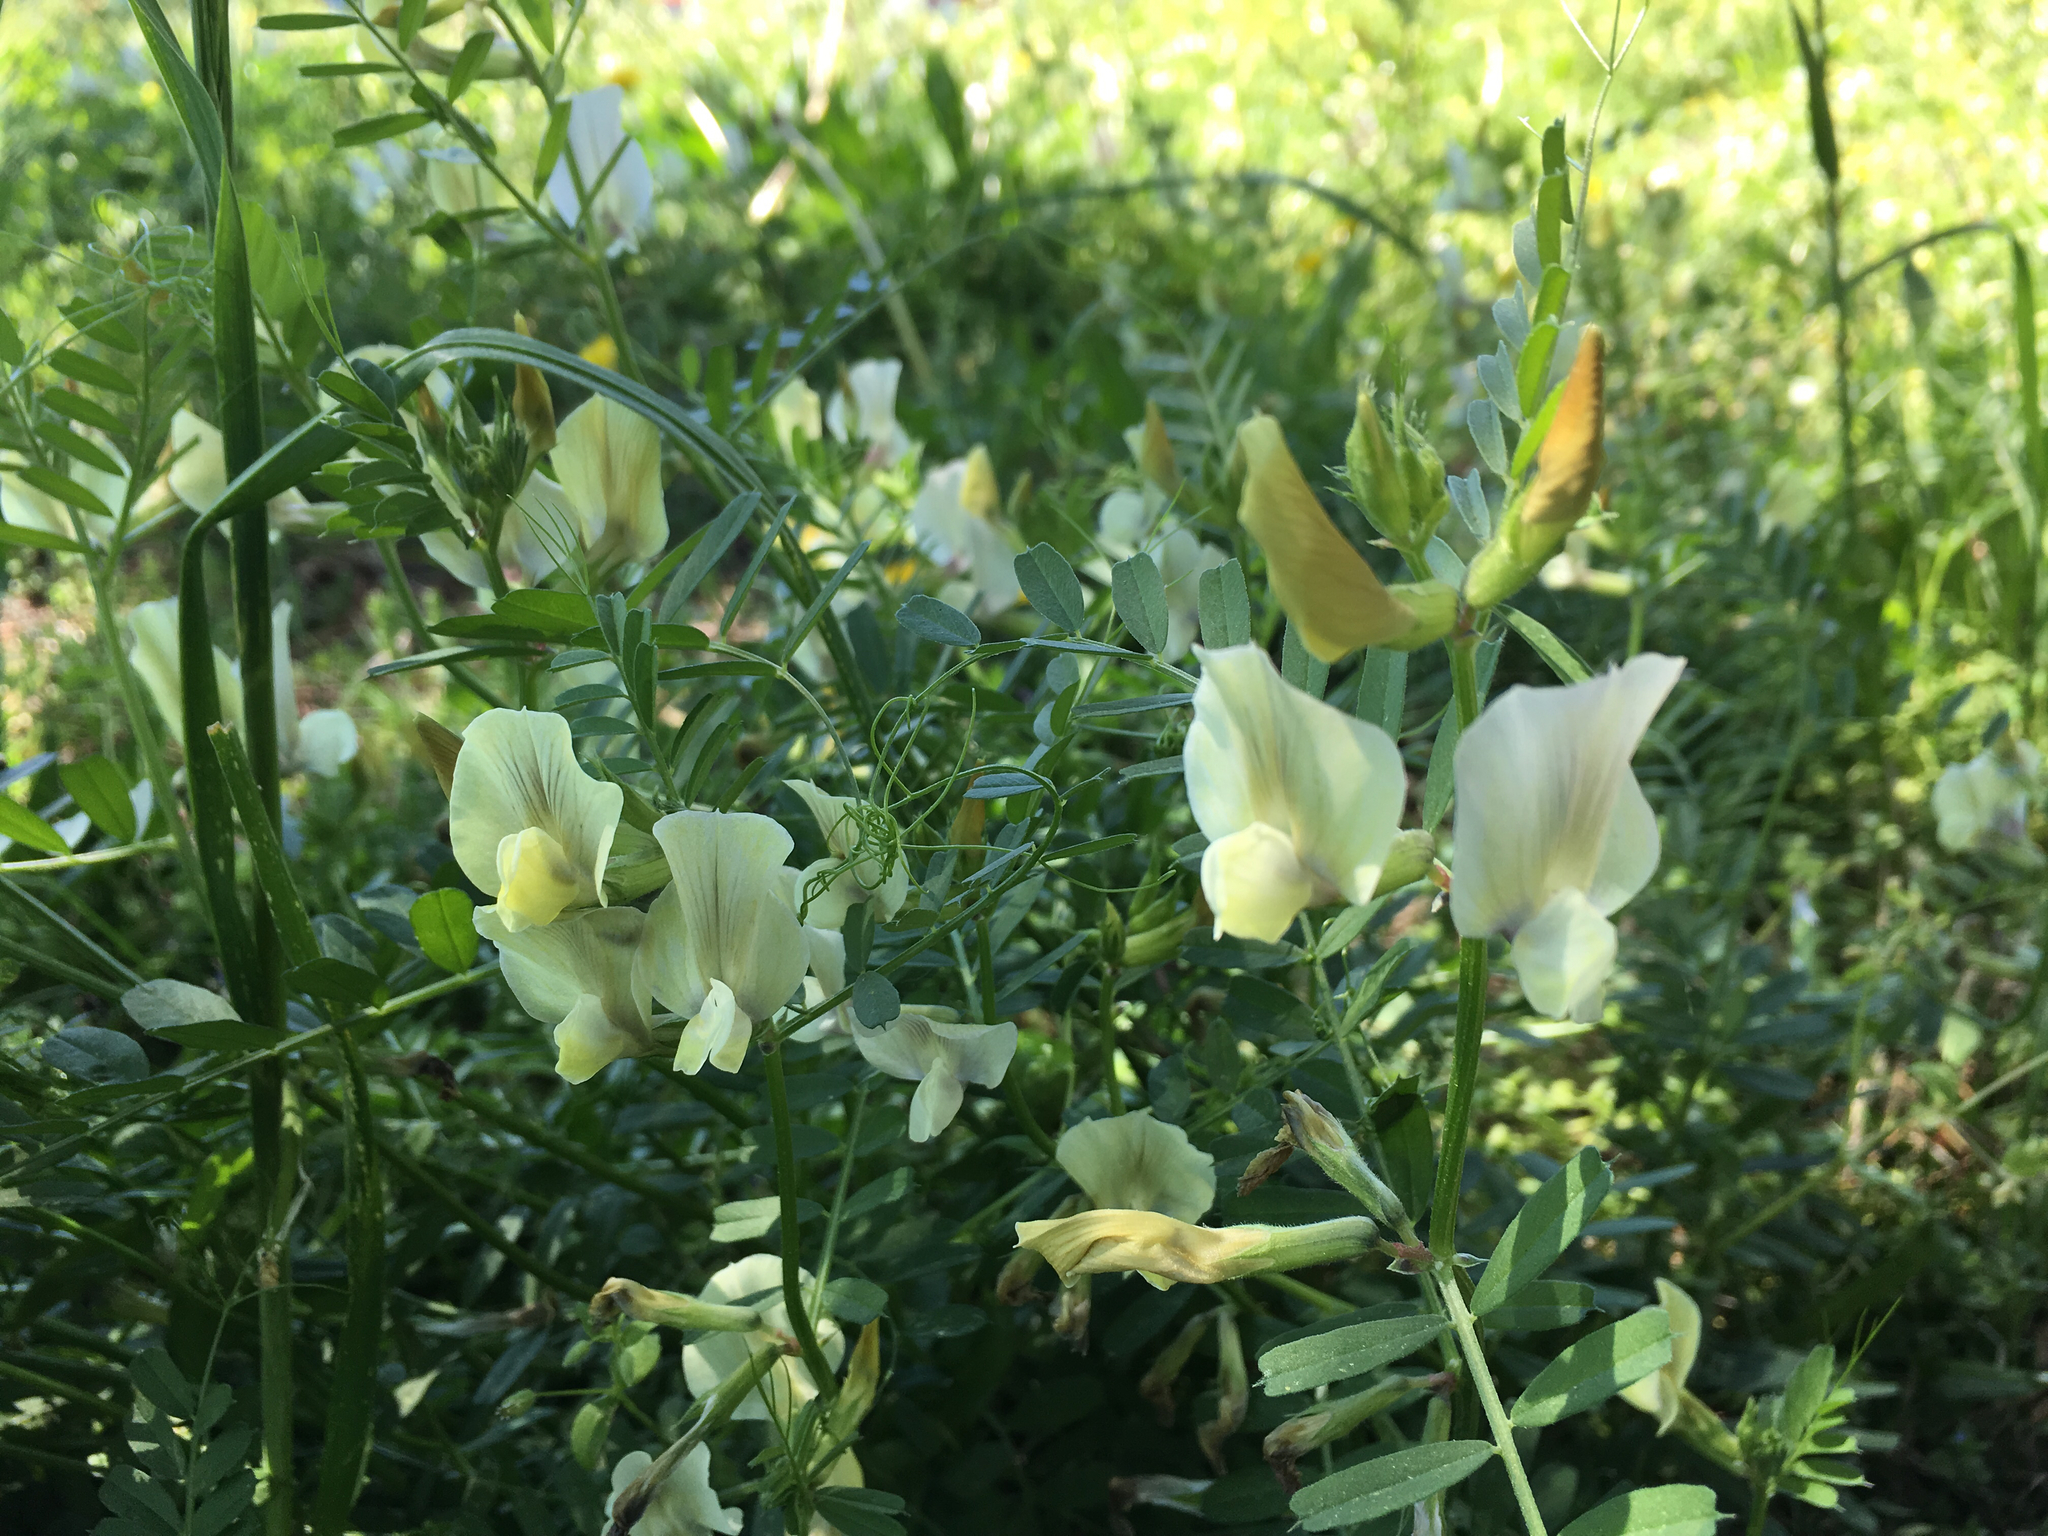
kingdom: Plantae
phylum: Tracheophyta
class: Magnoliopsida
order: Fabales
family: Fabaceae
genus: Vicia
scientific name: Vicia grandiflora
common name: Large yellow vetch
